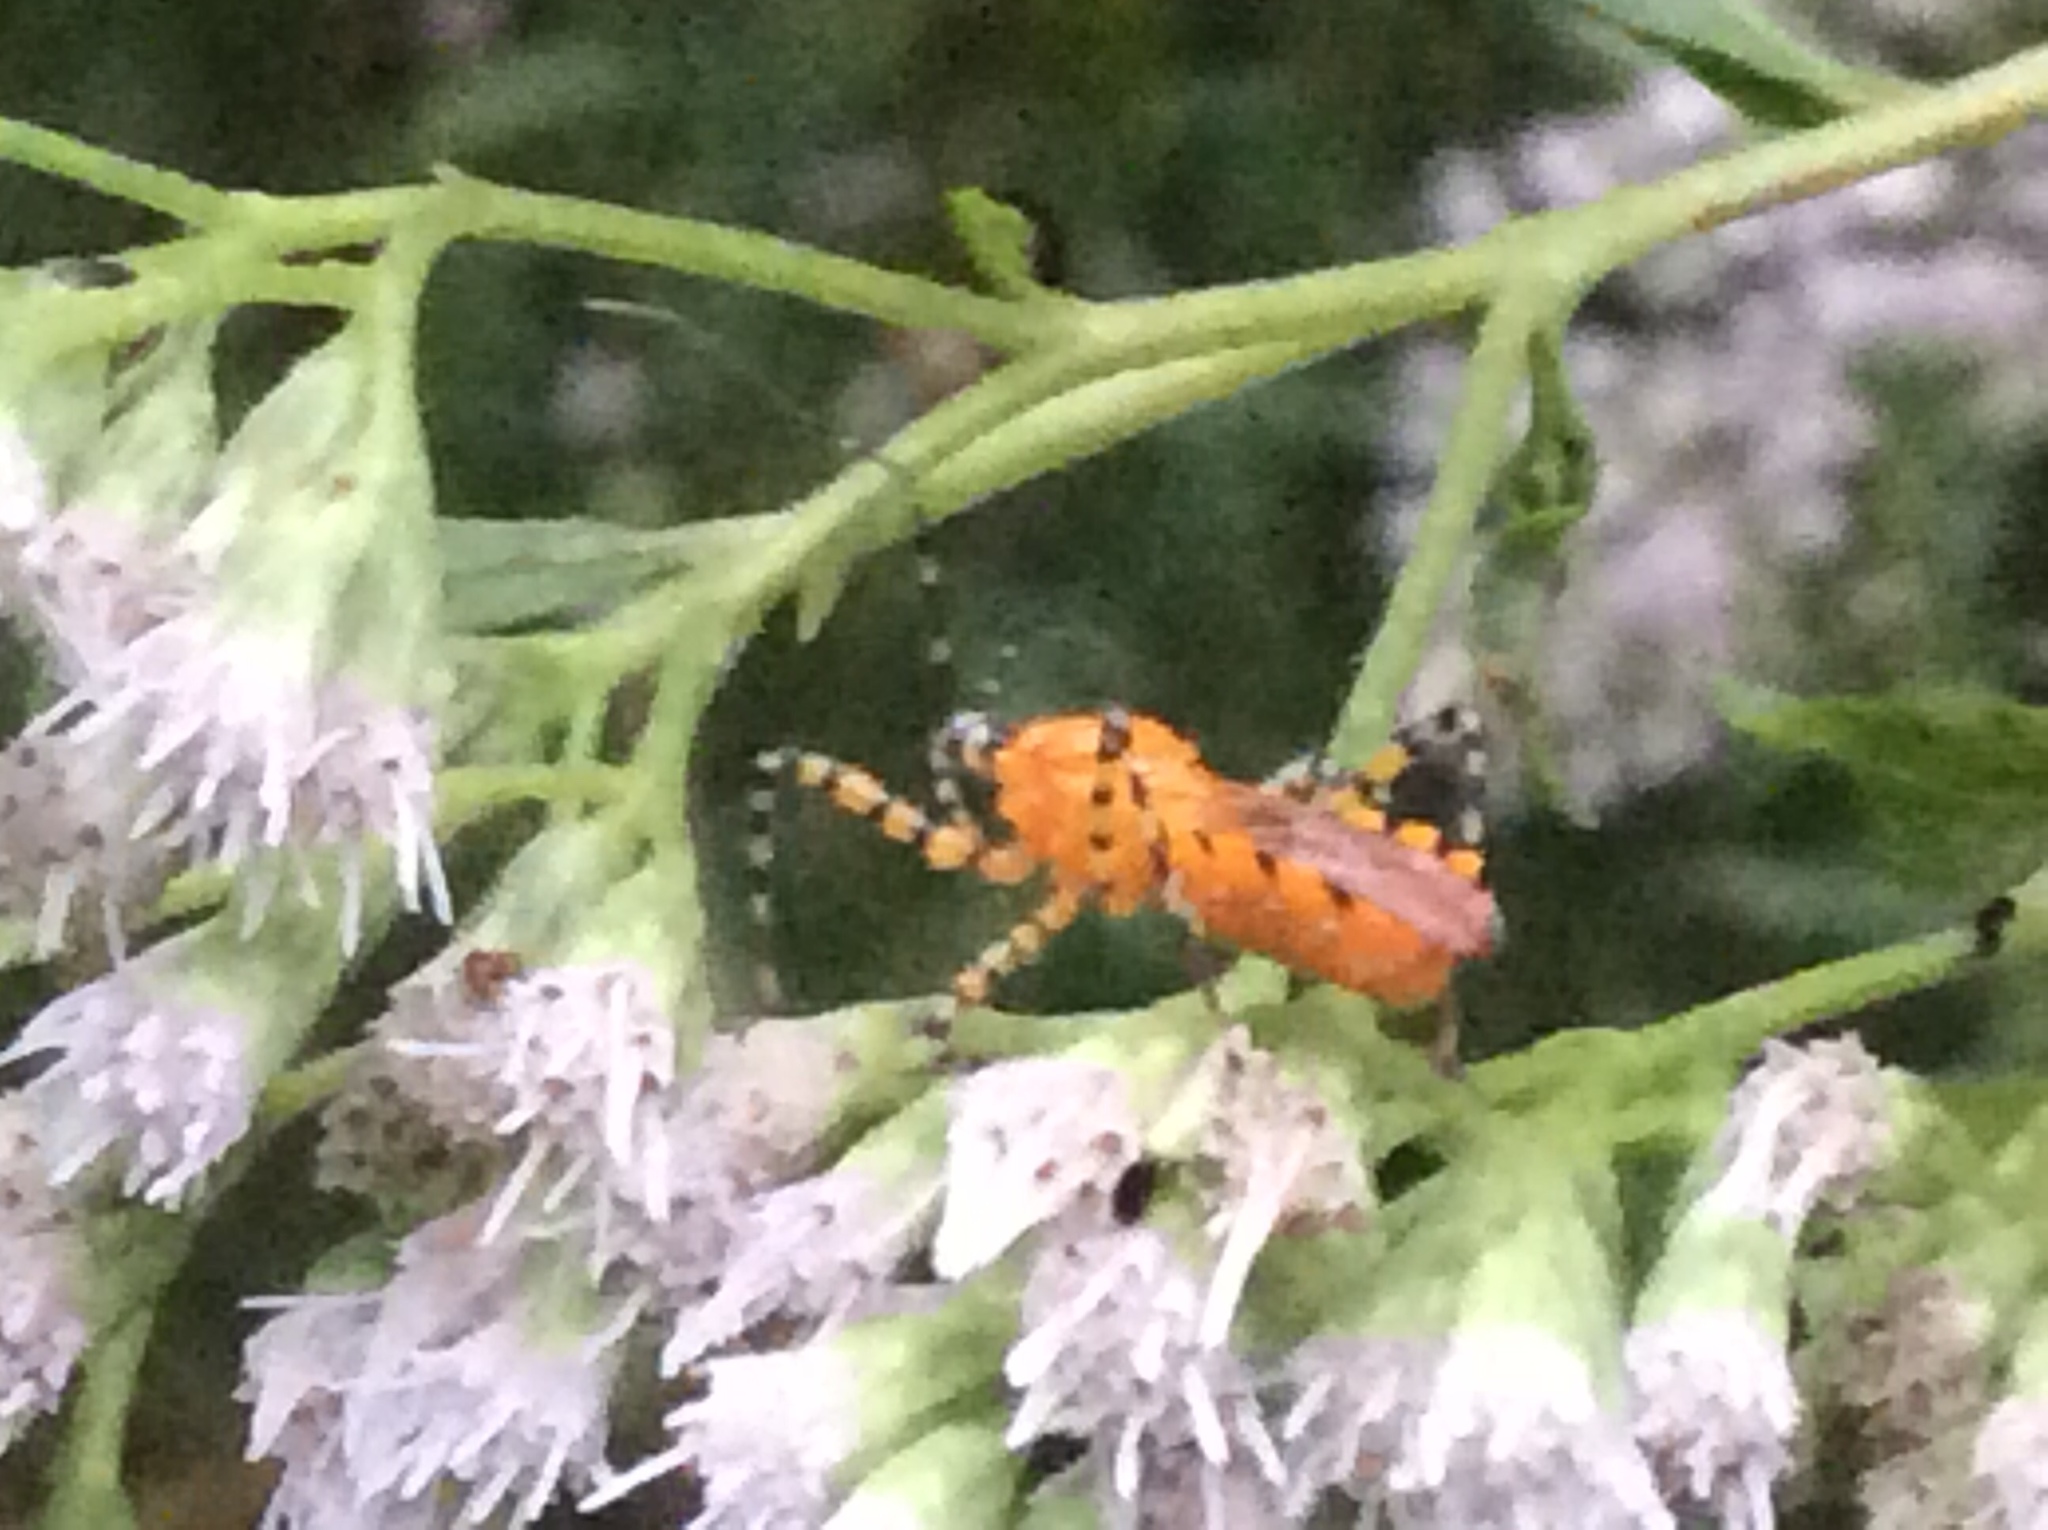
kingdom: Animalia
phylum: Arthropoda
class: Insecta
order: Hemiptera
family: Reduviidae
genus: Pselliopus
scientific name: Pselliopus barberi
